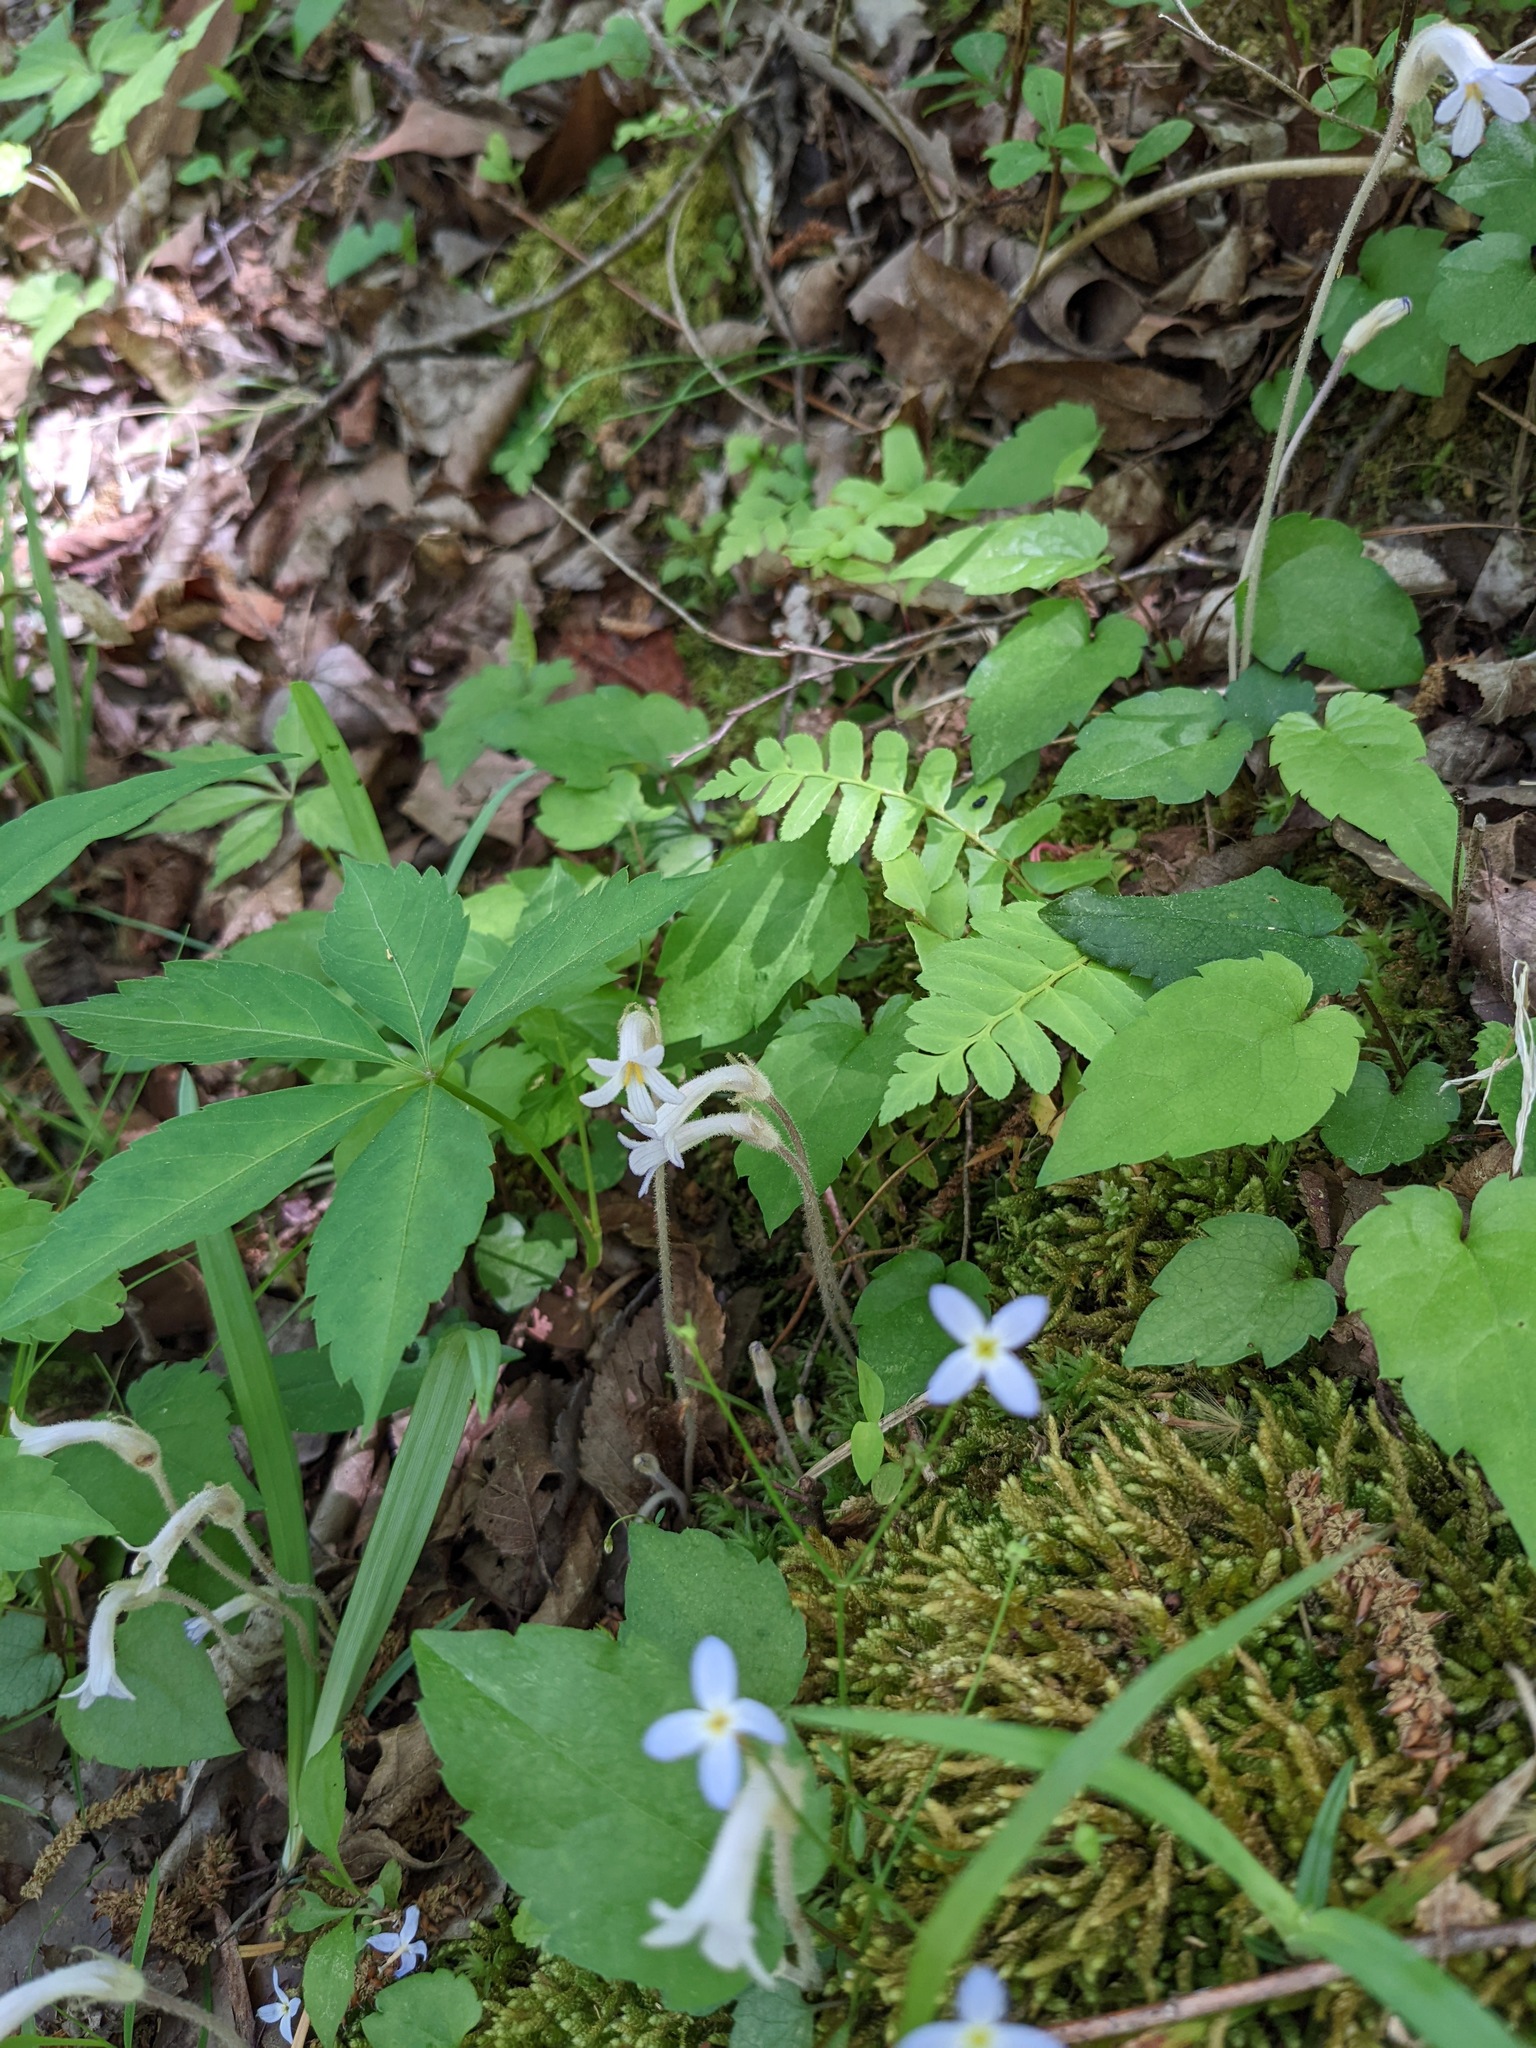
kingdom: Plantae
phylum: Tracheophyta
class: Magnoliopsida
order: Lamiales
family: Orobanchaceae
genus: Aphyllon
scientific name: Aphyllon uniflorum
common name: One-flowered broomrape
